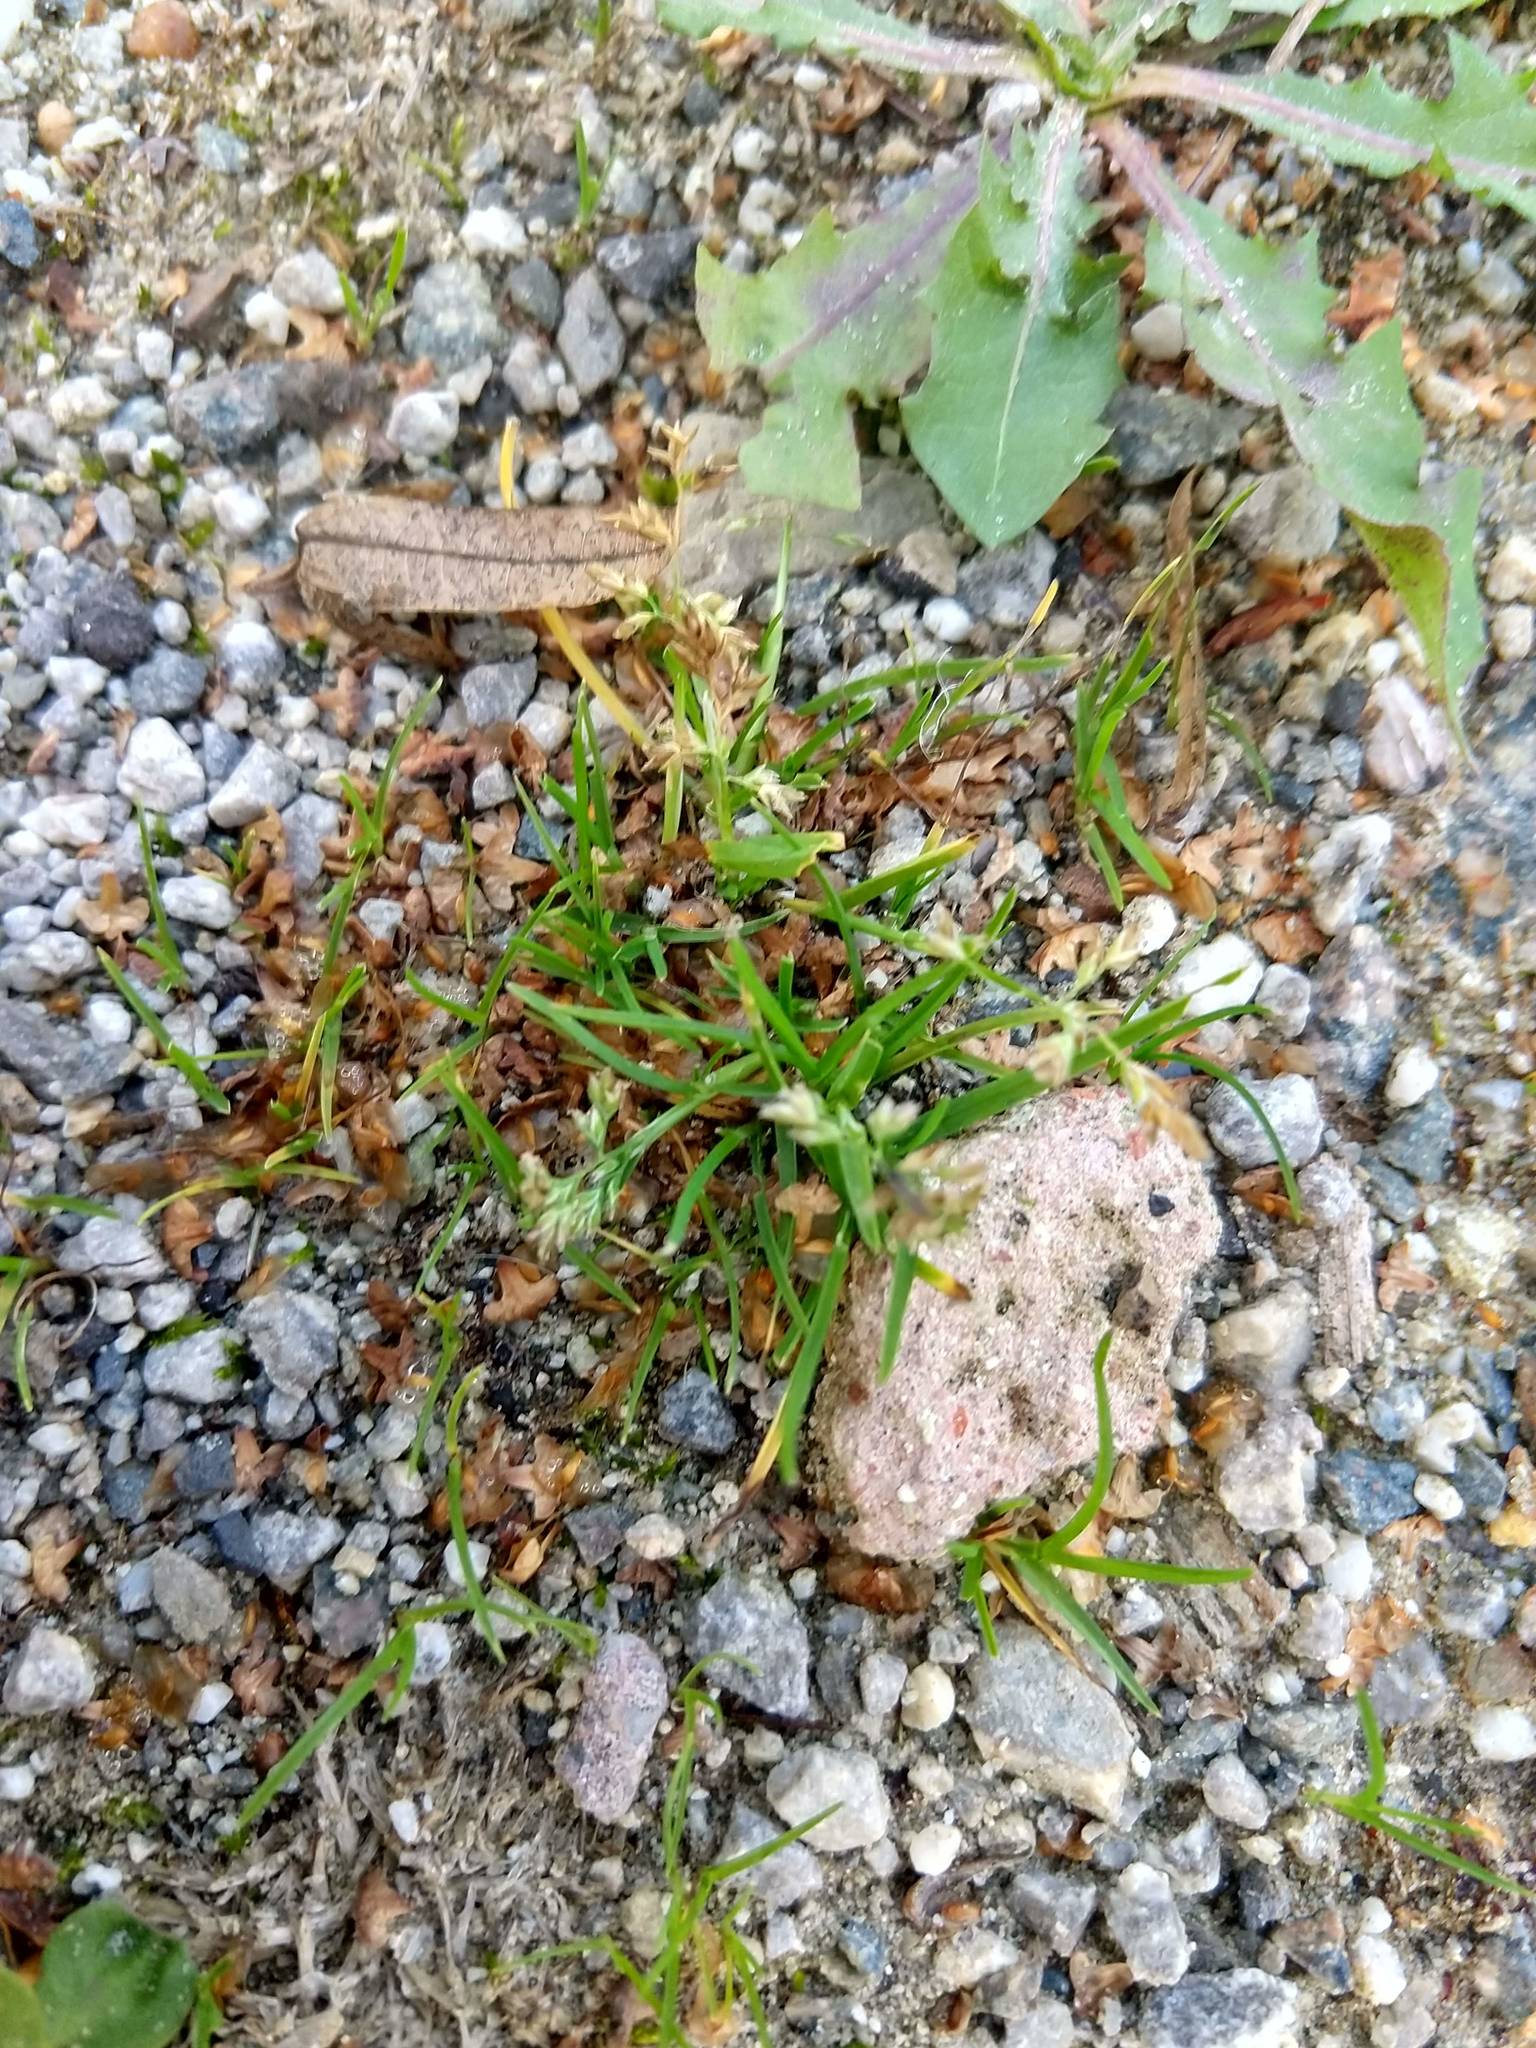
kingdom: Plantae
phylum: Tracheophyta
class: Liliopsida
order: Poales
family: Poaceae
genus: Poa
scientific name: Poa annua
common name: Annual bluegrass
